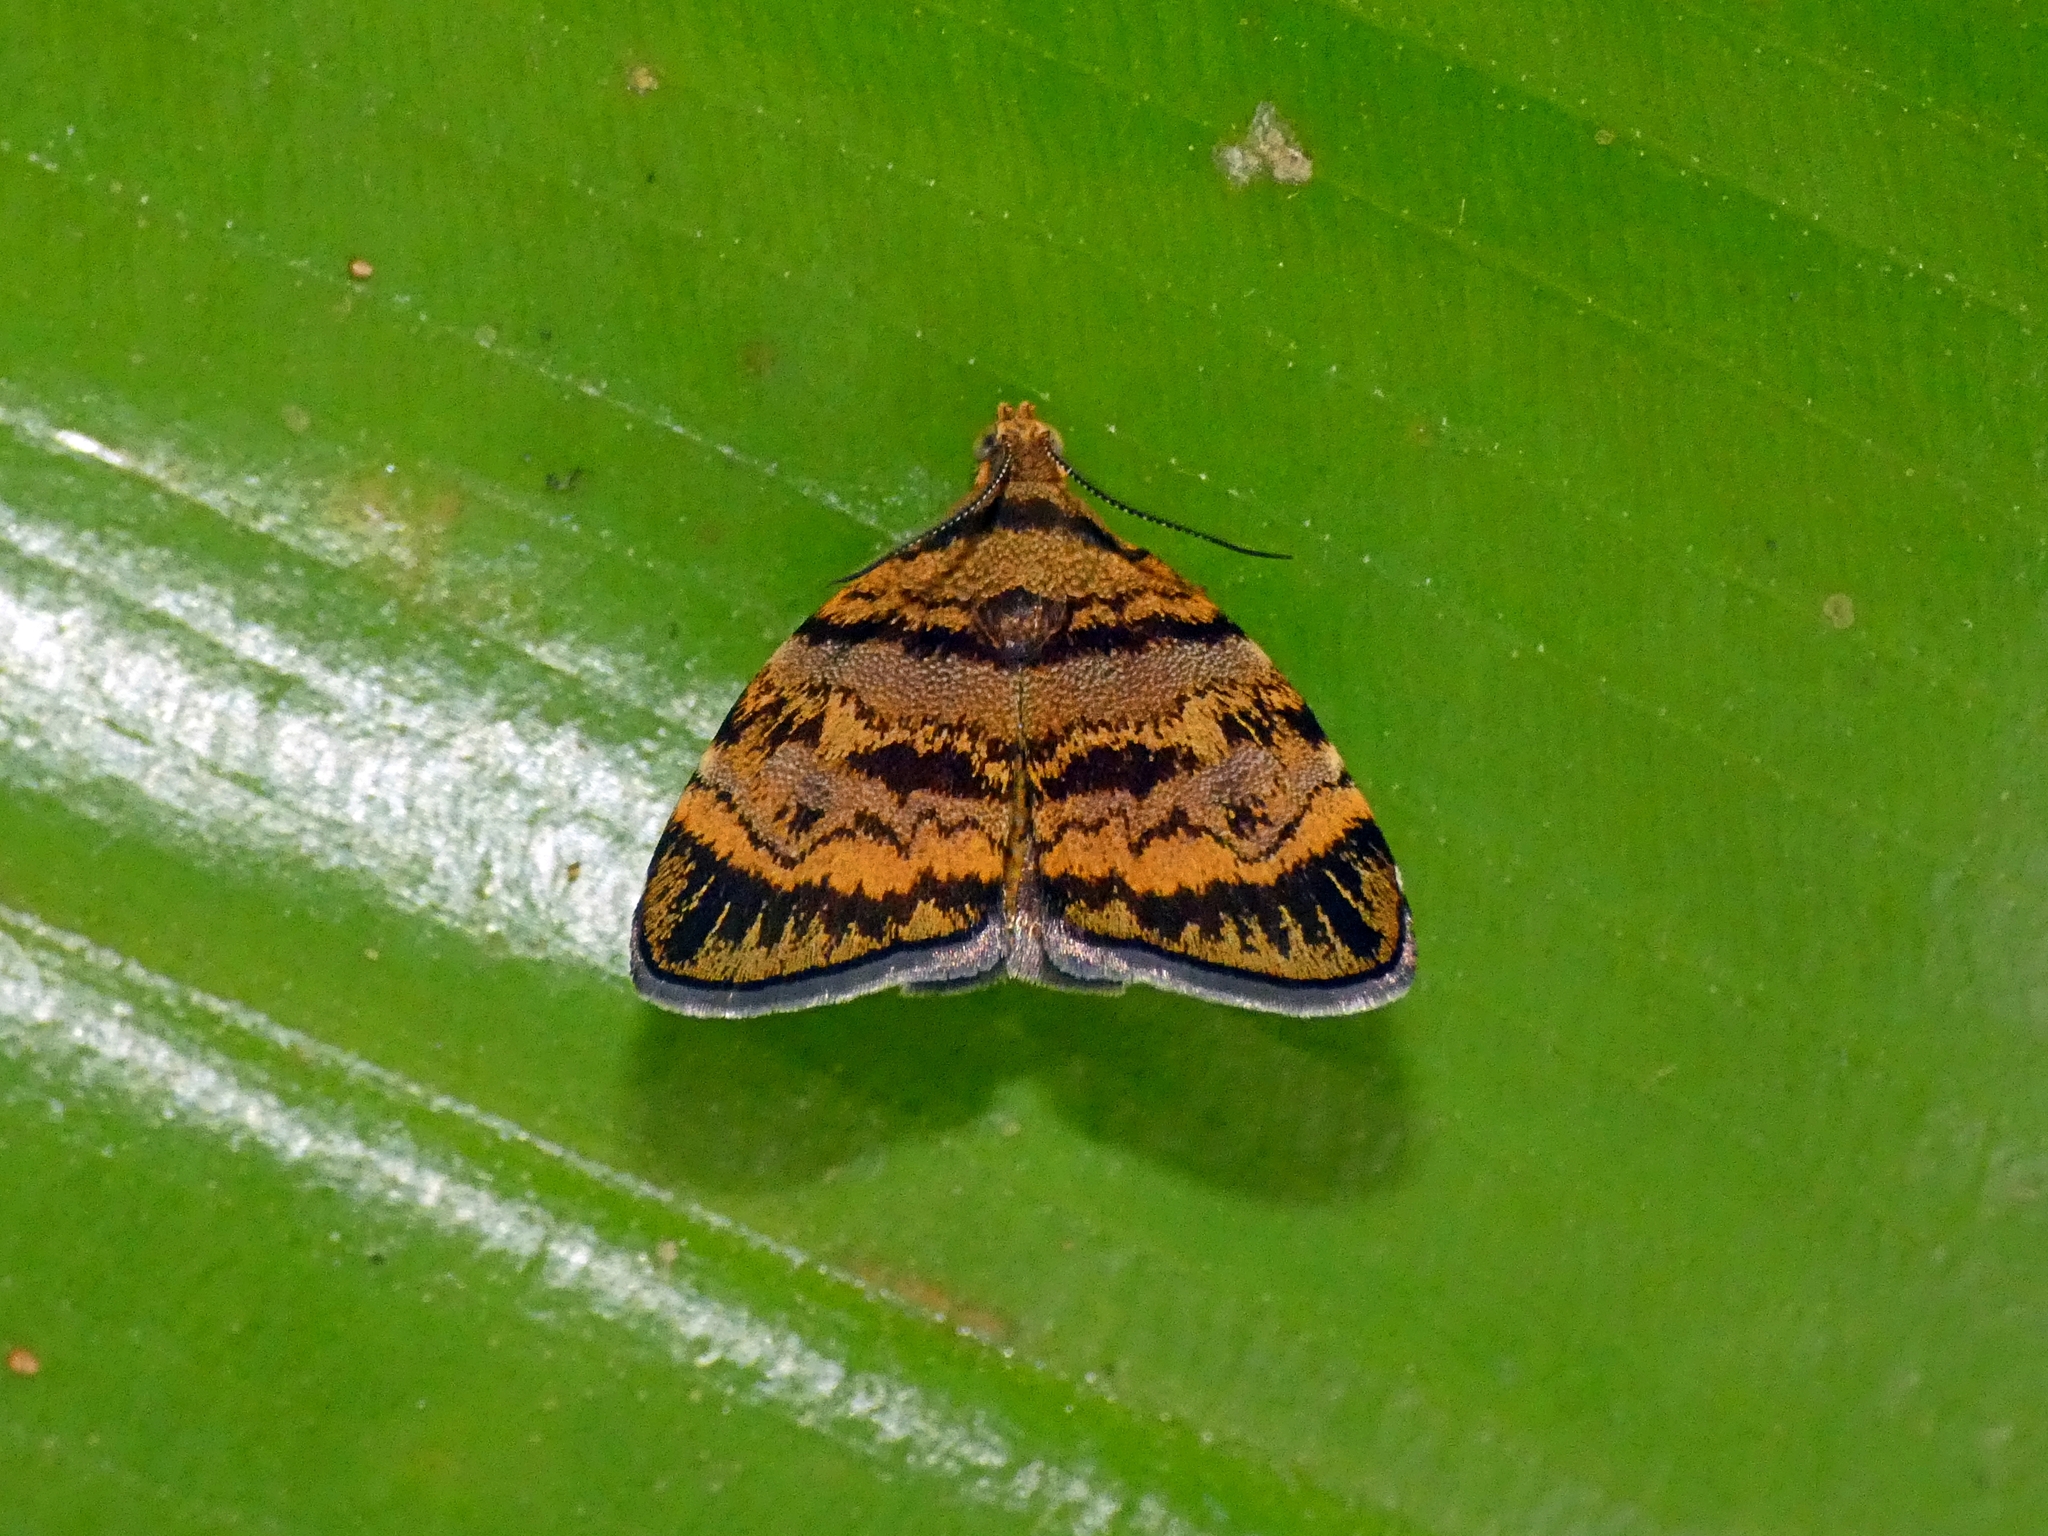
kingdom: Animalia
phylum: Arthropoda
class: Insecta
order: Lepidoptera
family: Choreutidae
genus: Choreutis
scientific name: Choreutis limonias
